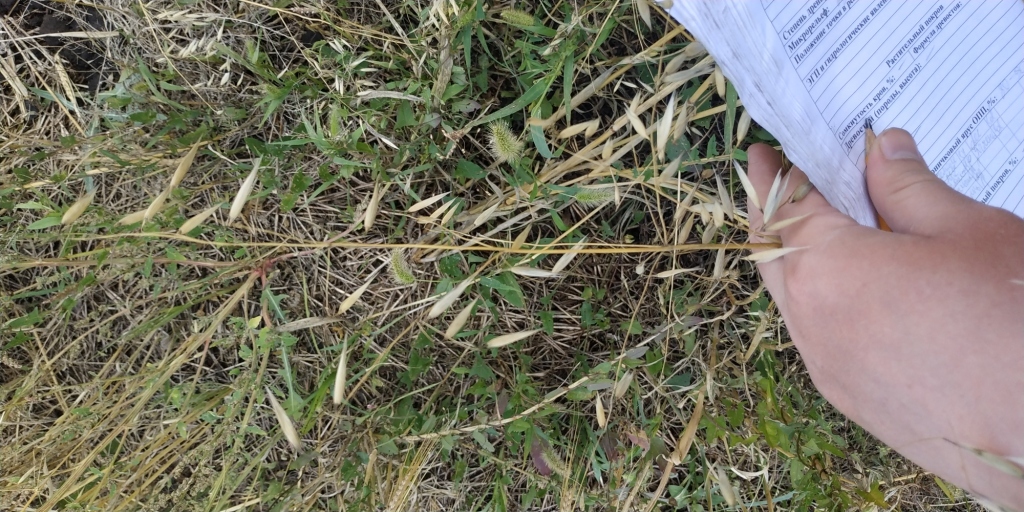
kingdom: Plantae
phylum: Tracheophyta
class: Liliopsida
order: Poales
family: Poaceae
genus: Avena
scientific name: Avena fatua
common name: Wild oat
